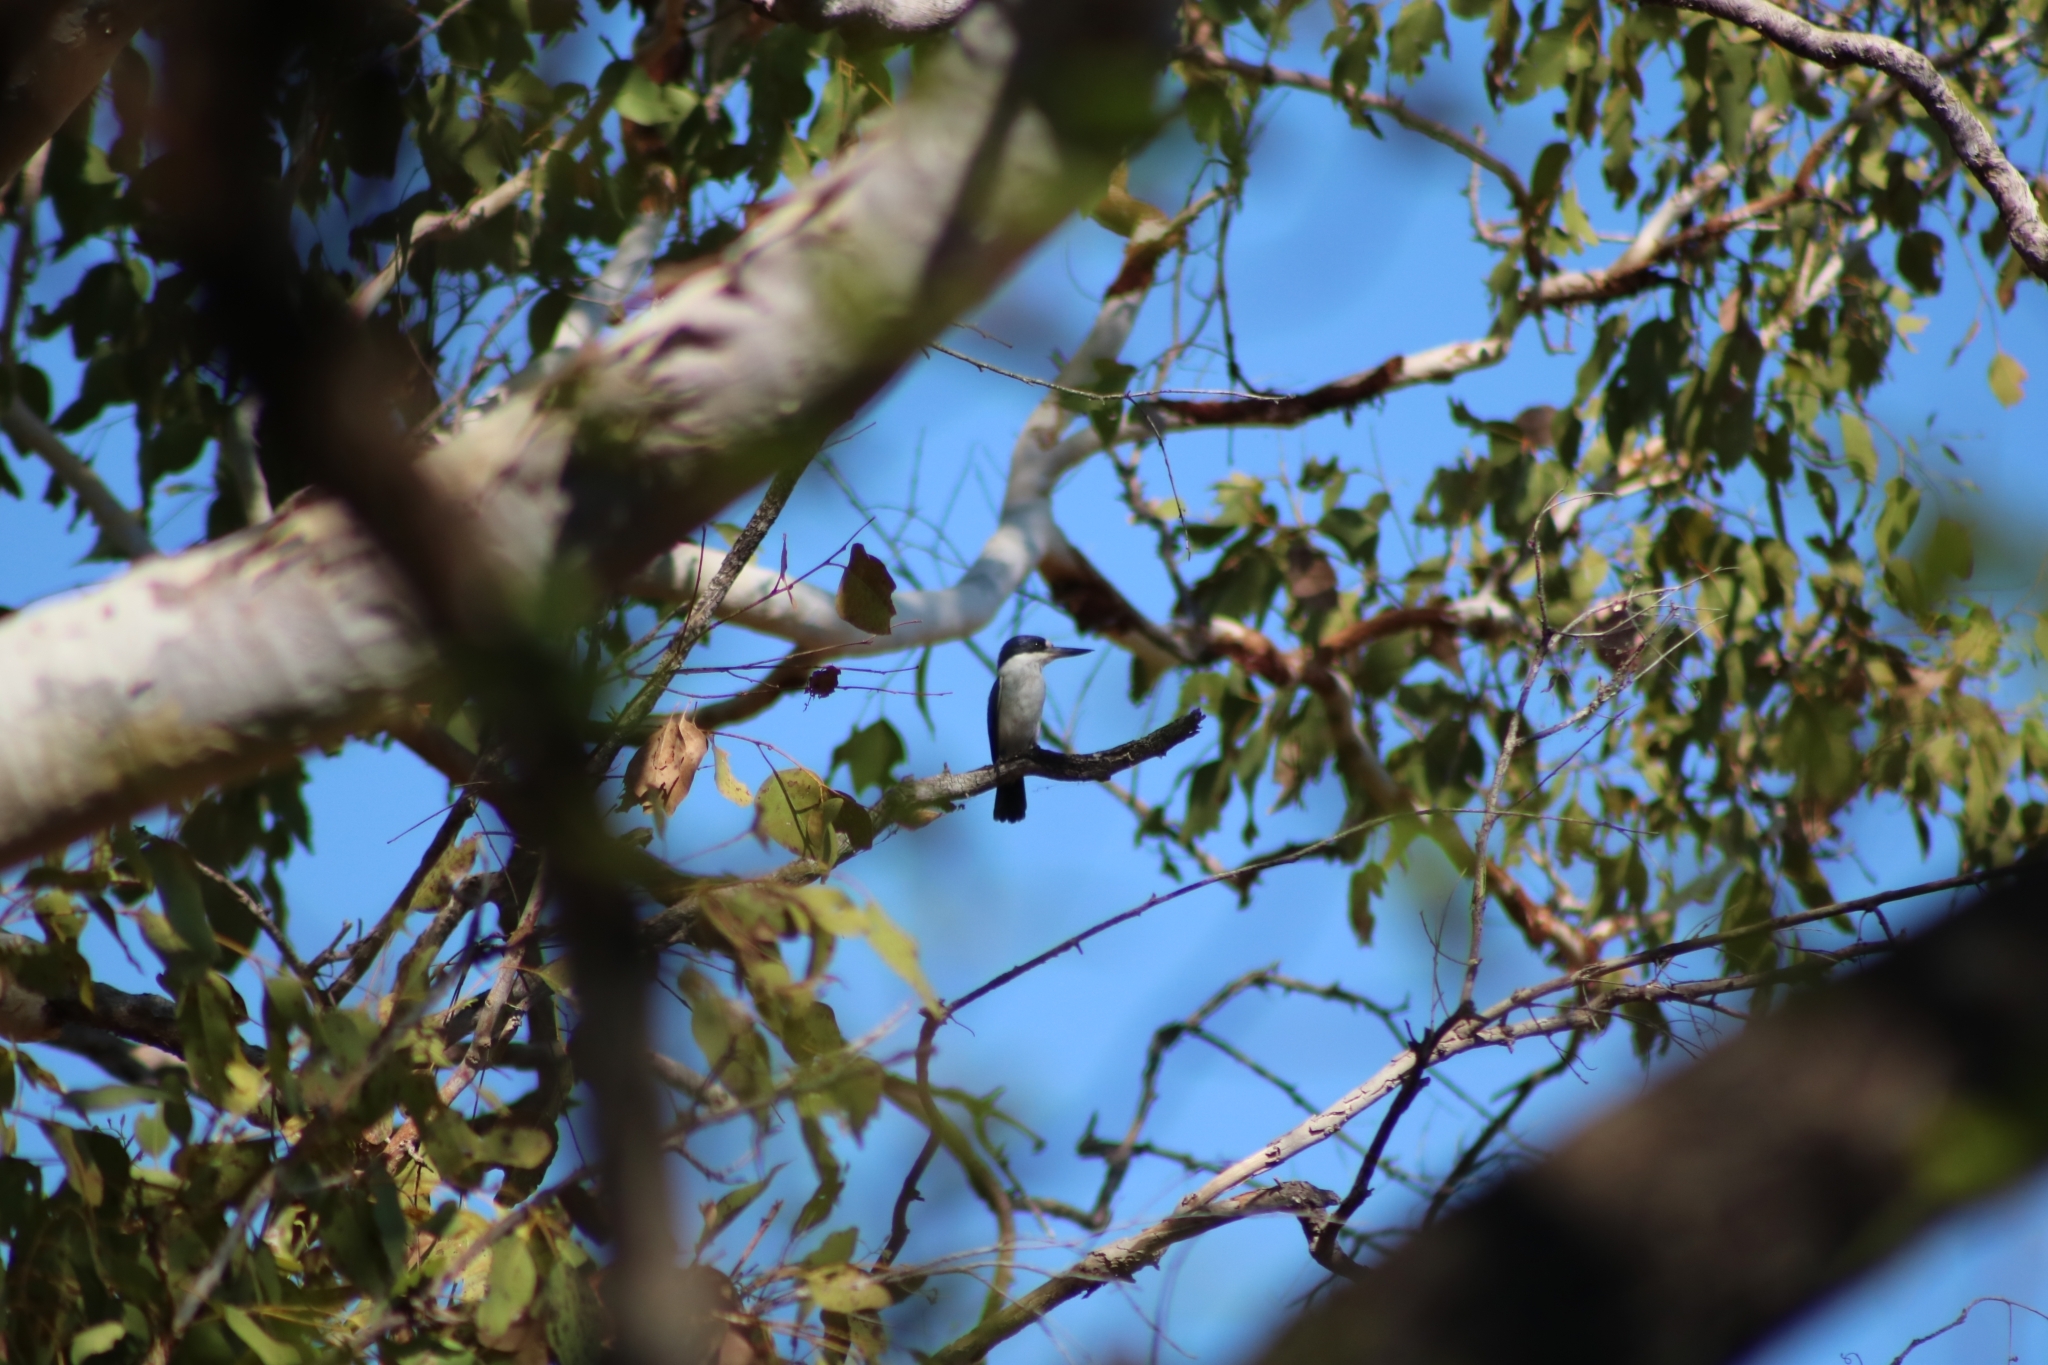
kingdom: Animalia
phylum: Chordata
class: Aves
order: Coraciiformes
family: Alcedinidae
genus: Todiramphus
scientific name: Todiramphus macleayii
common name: Forest kingfisher
